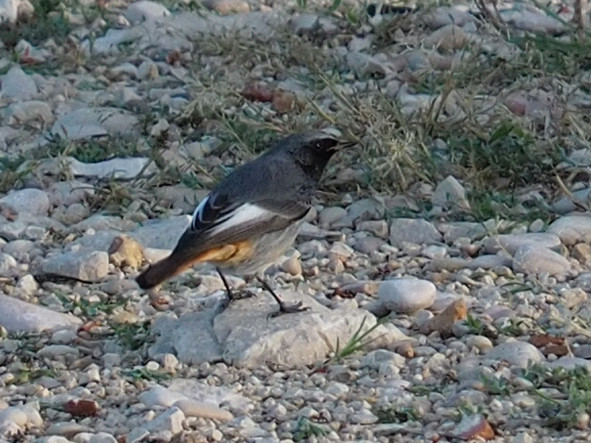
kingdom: Animalia
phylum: Chordata
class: Aves
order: Passeriformes
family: Muscicapidae
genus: Phoenicurus
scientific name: Phoenicurus ochruros
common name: Black redstart
